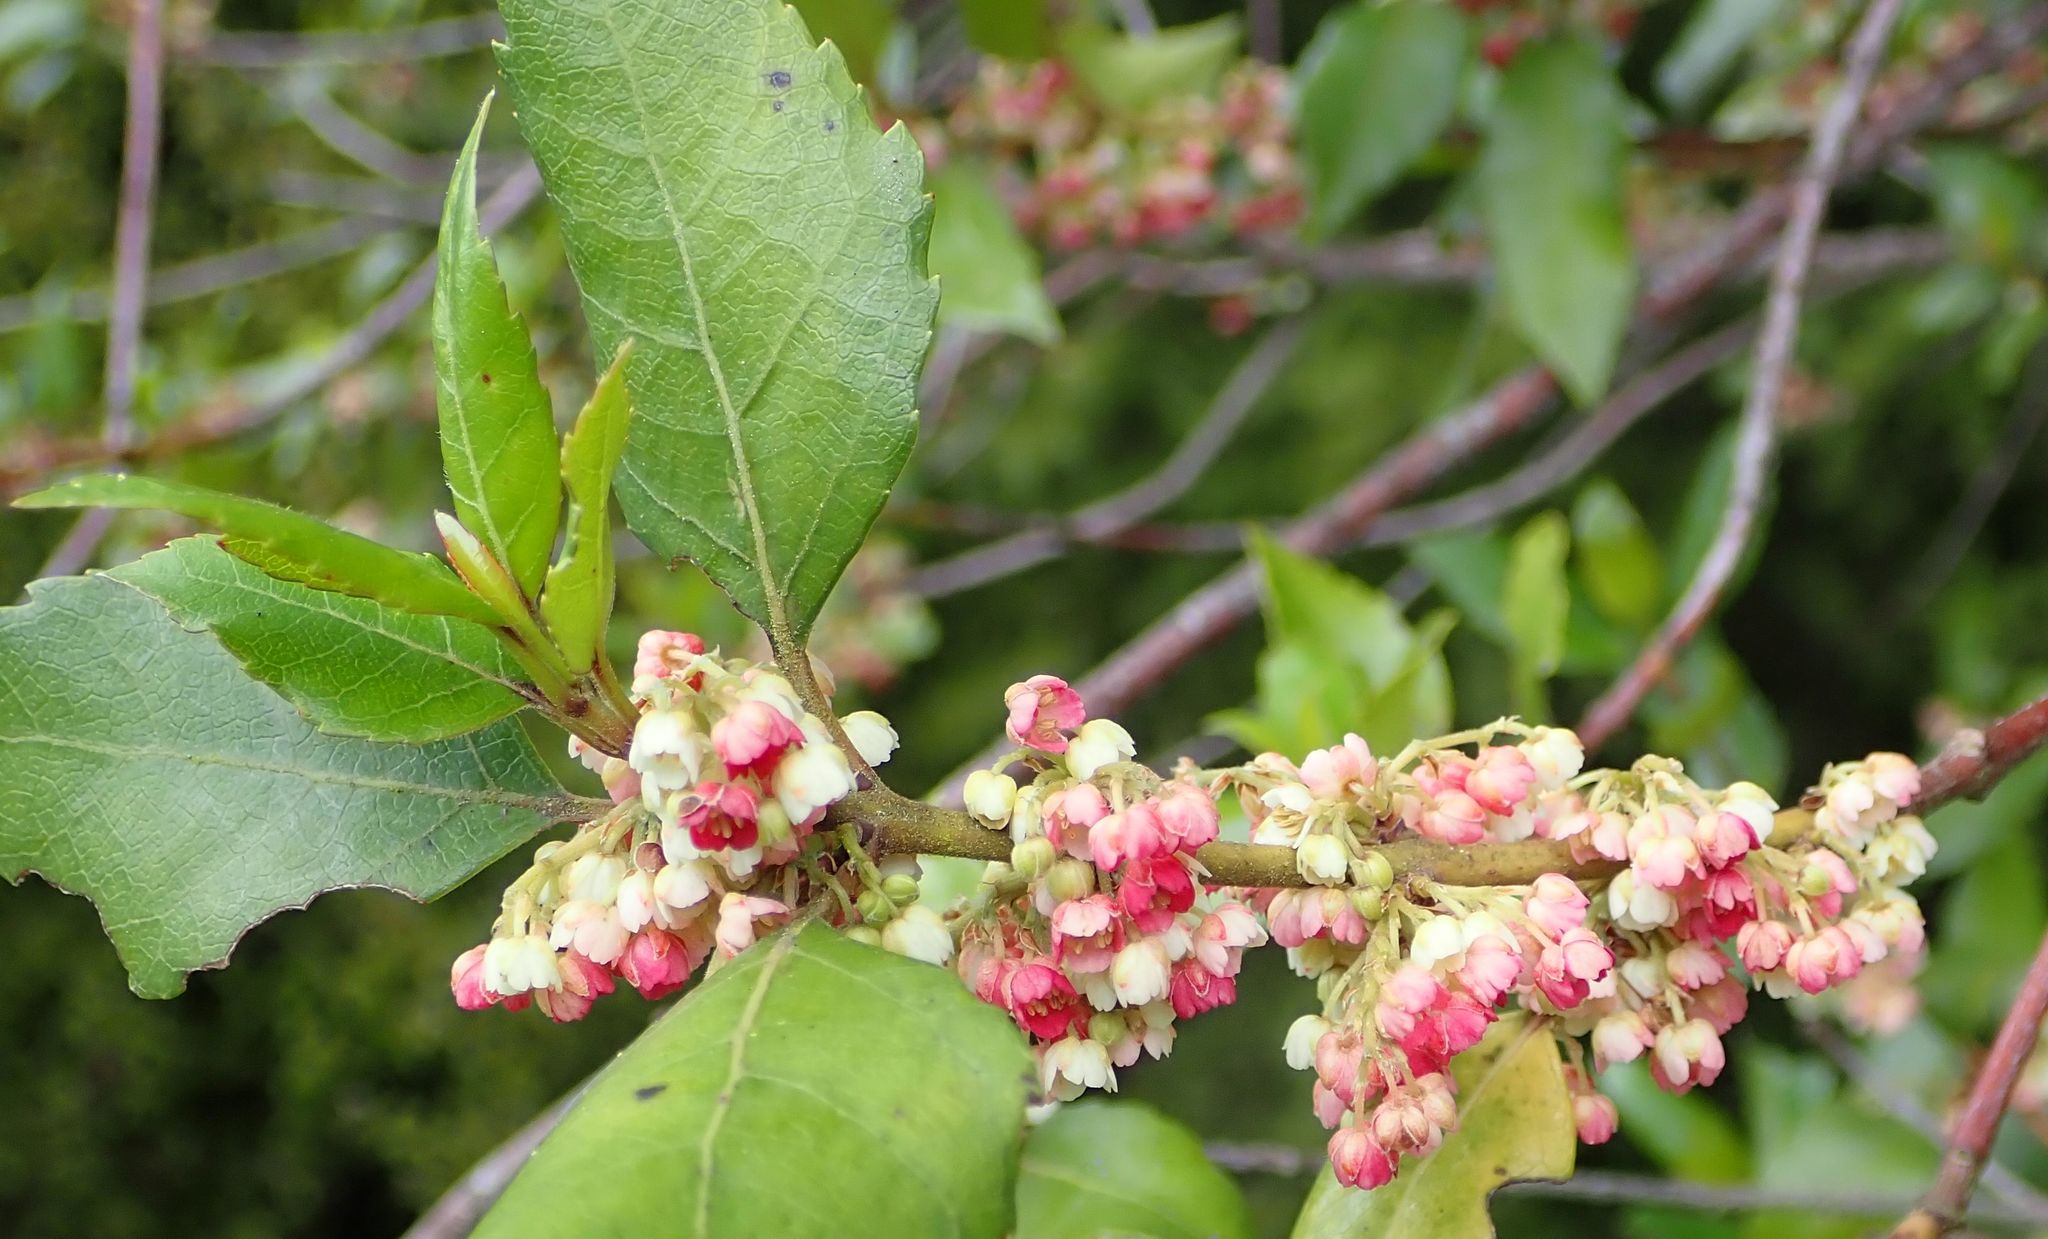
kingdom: Plantae
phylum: Tracheophyta
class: Magnoliopsida
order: Oxalidales
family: Elaeocarpaceae
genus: Aristotelia
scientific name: Aristotelia
